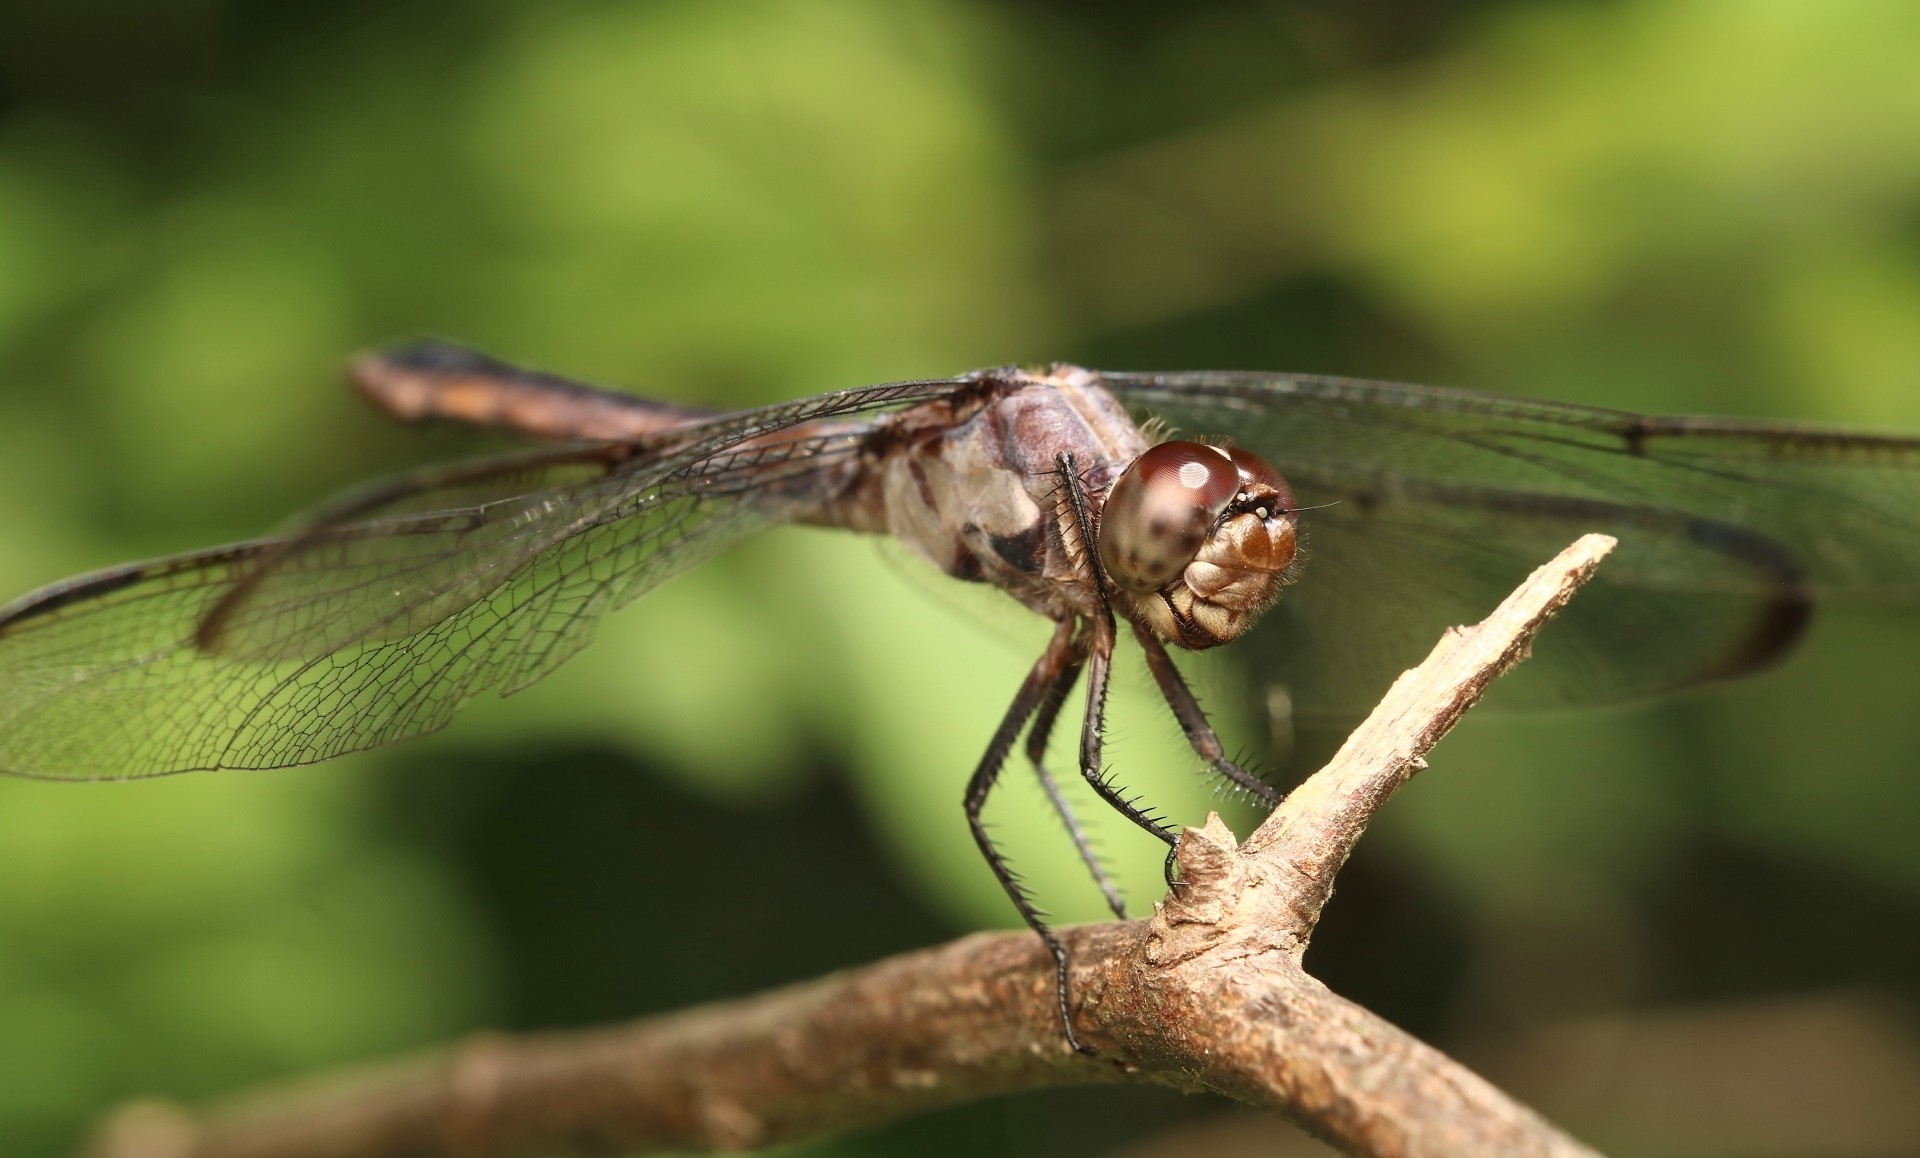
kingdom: Animalia
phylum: Arthropoda
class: Insecta
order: Odonata
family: Libellulidae
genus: Libellula
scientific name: Libellula incesta
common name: Slaty skimmer
